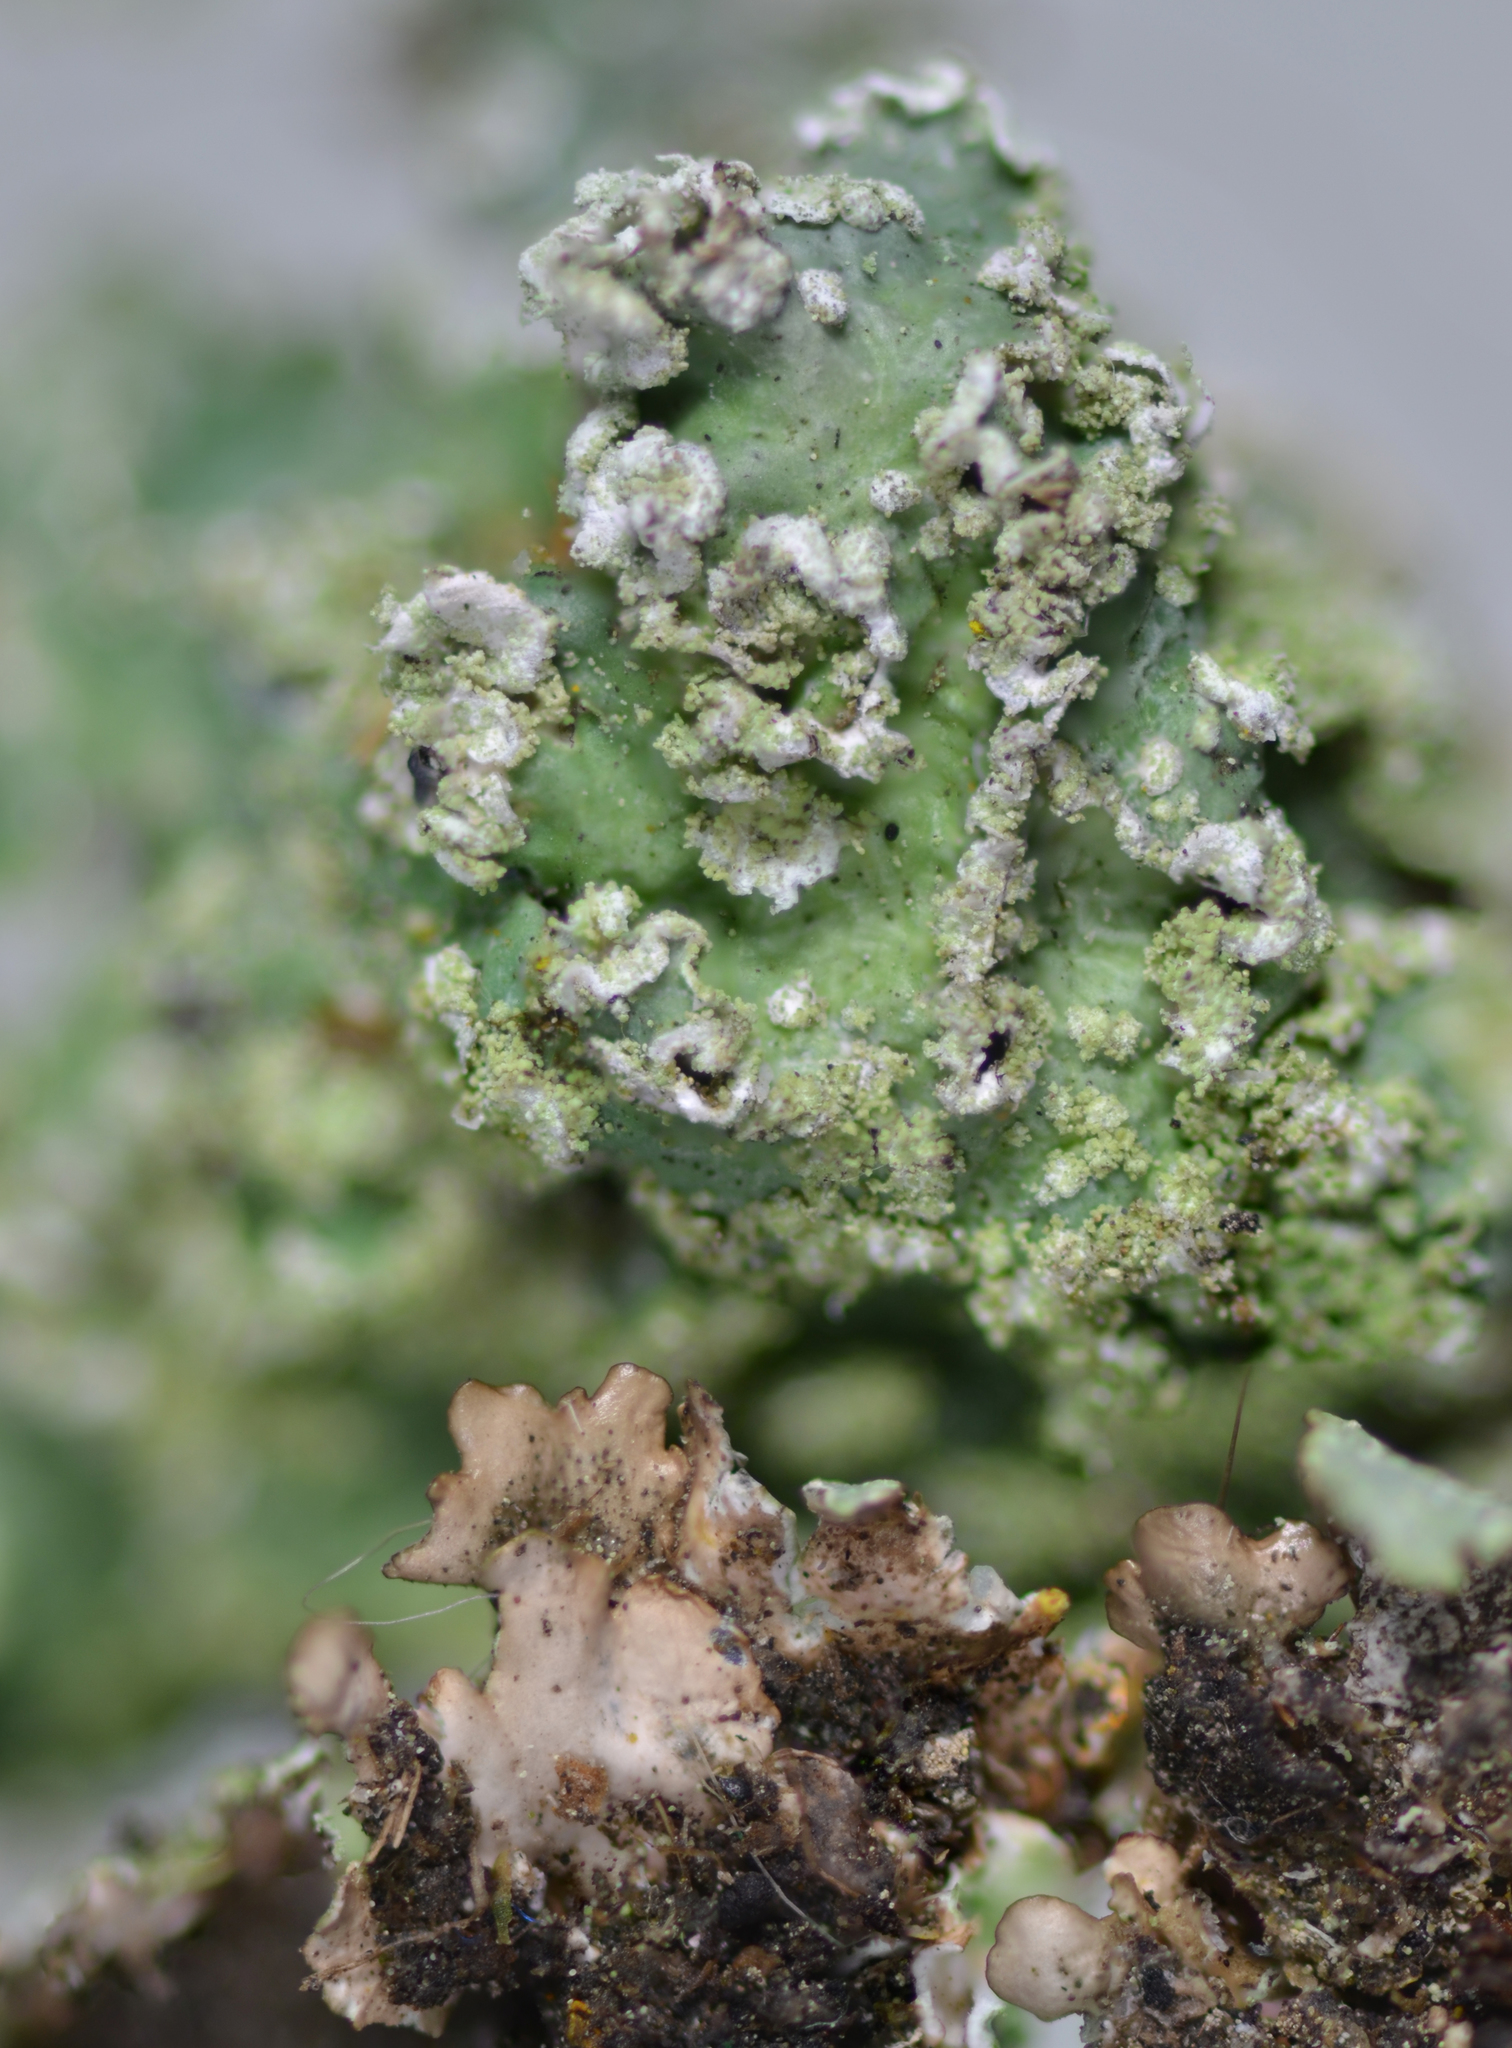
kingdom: Fungi
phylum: Ascomycota
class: Lecanoromycetes
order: Lecanorales
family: Parmeliaceae
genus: Punctelia
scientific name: Punctelia subrudecta
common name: Powdered speckled shield lichen
